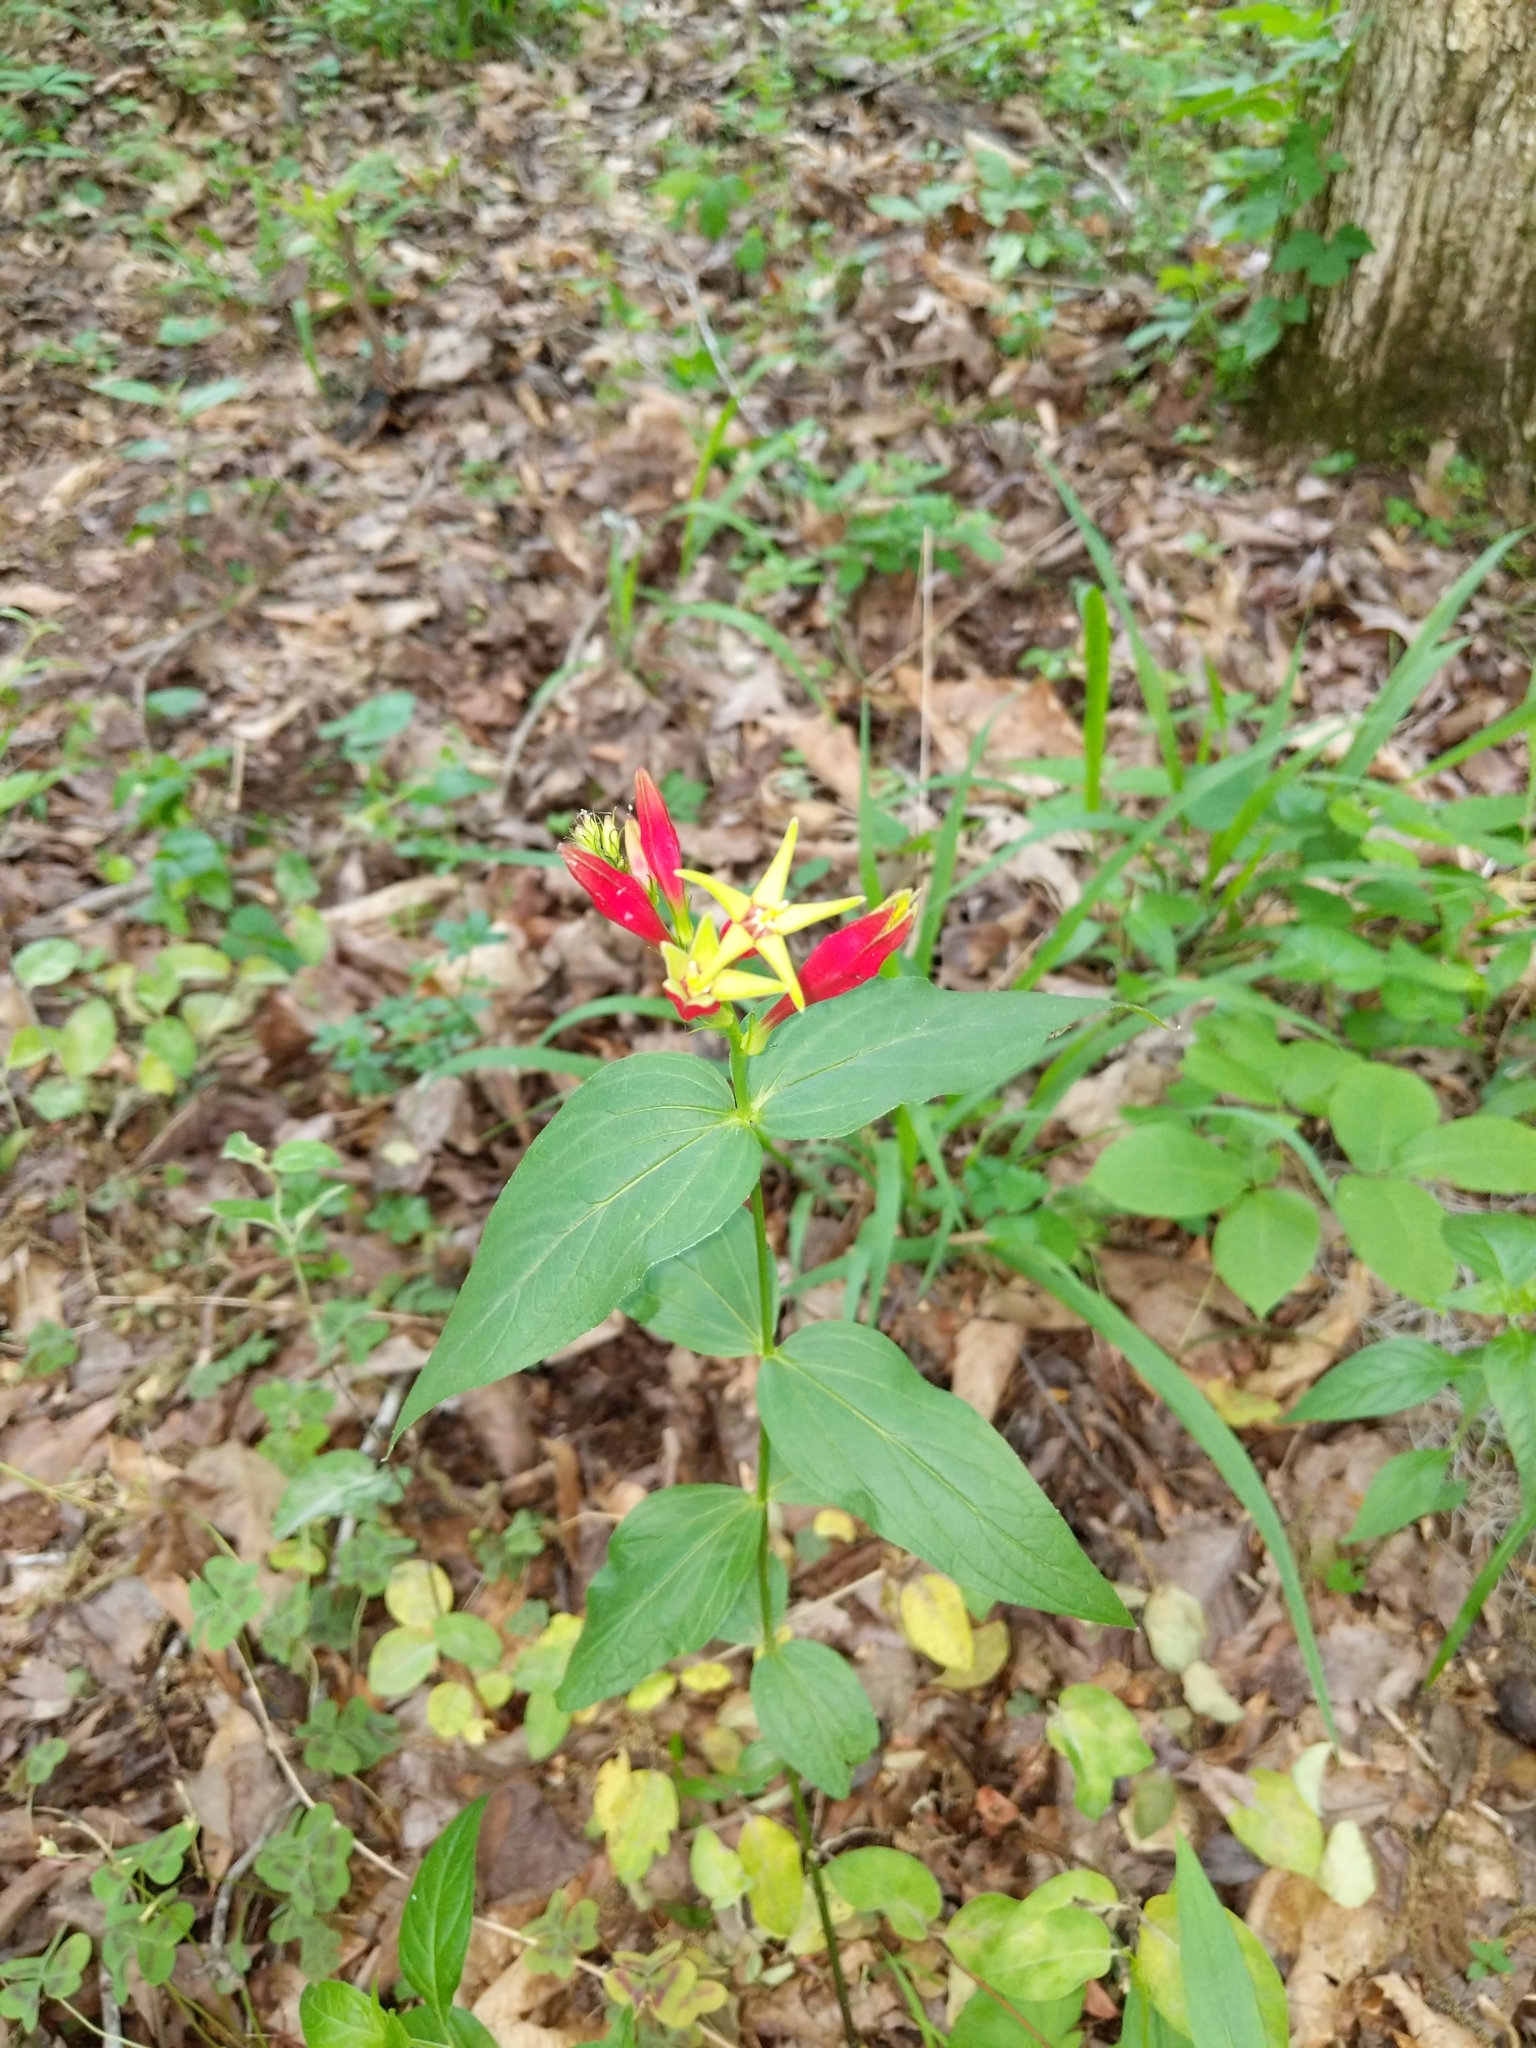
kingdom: Plantae
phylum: Tracheophyta
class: Magnoliopsida
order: Gentianales
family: Loganiaceae
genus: Spigelia
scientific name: Spigelia marilandica
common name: Indian-pink
